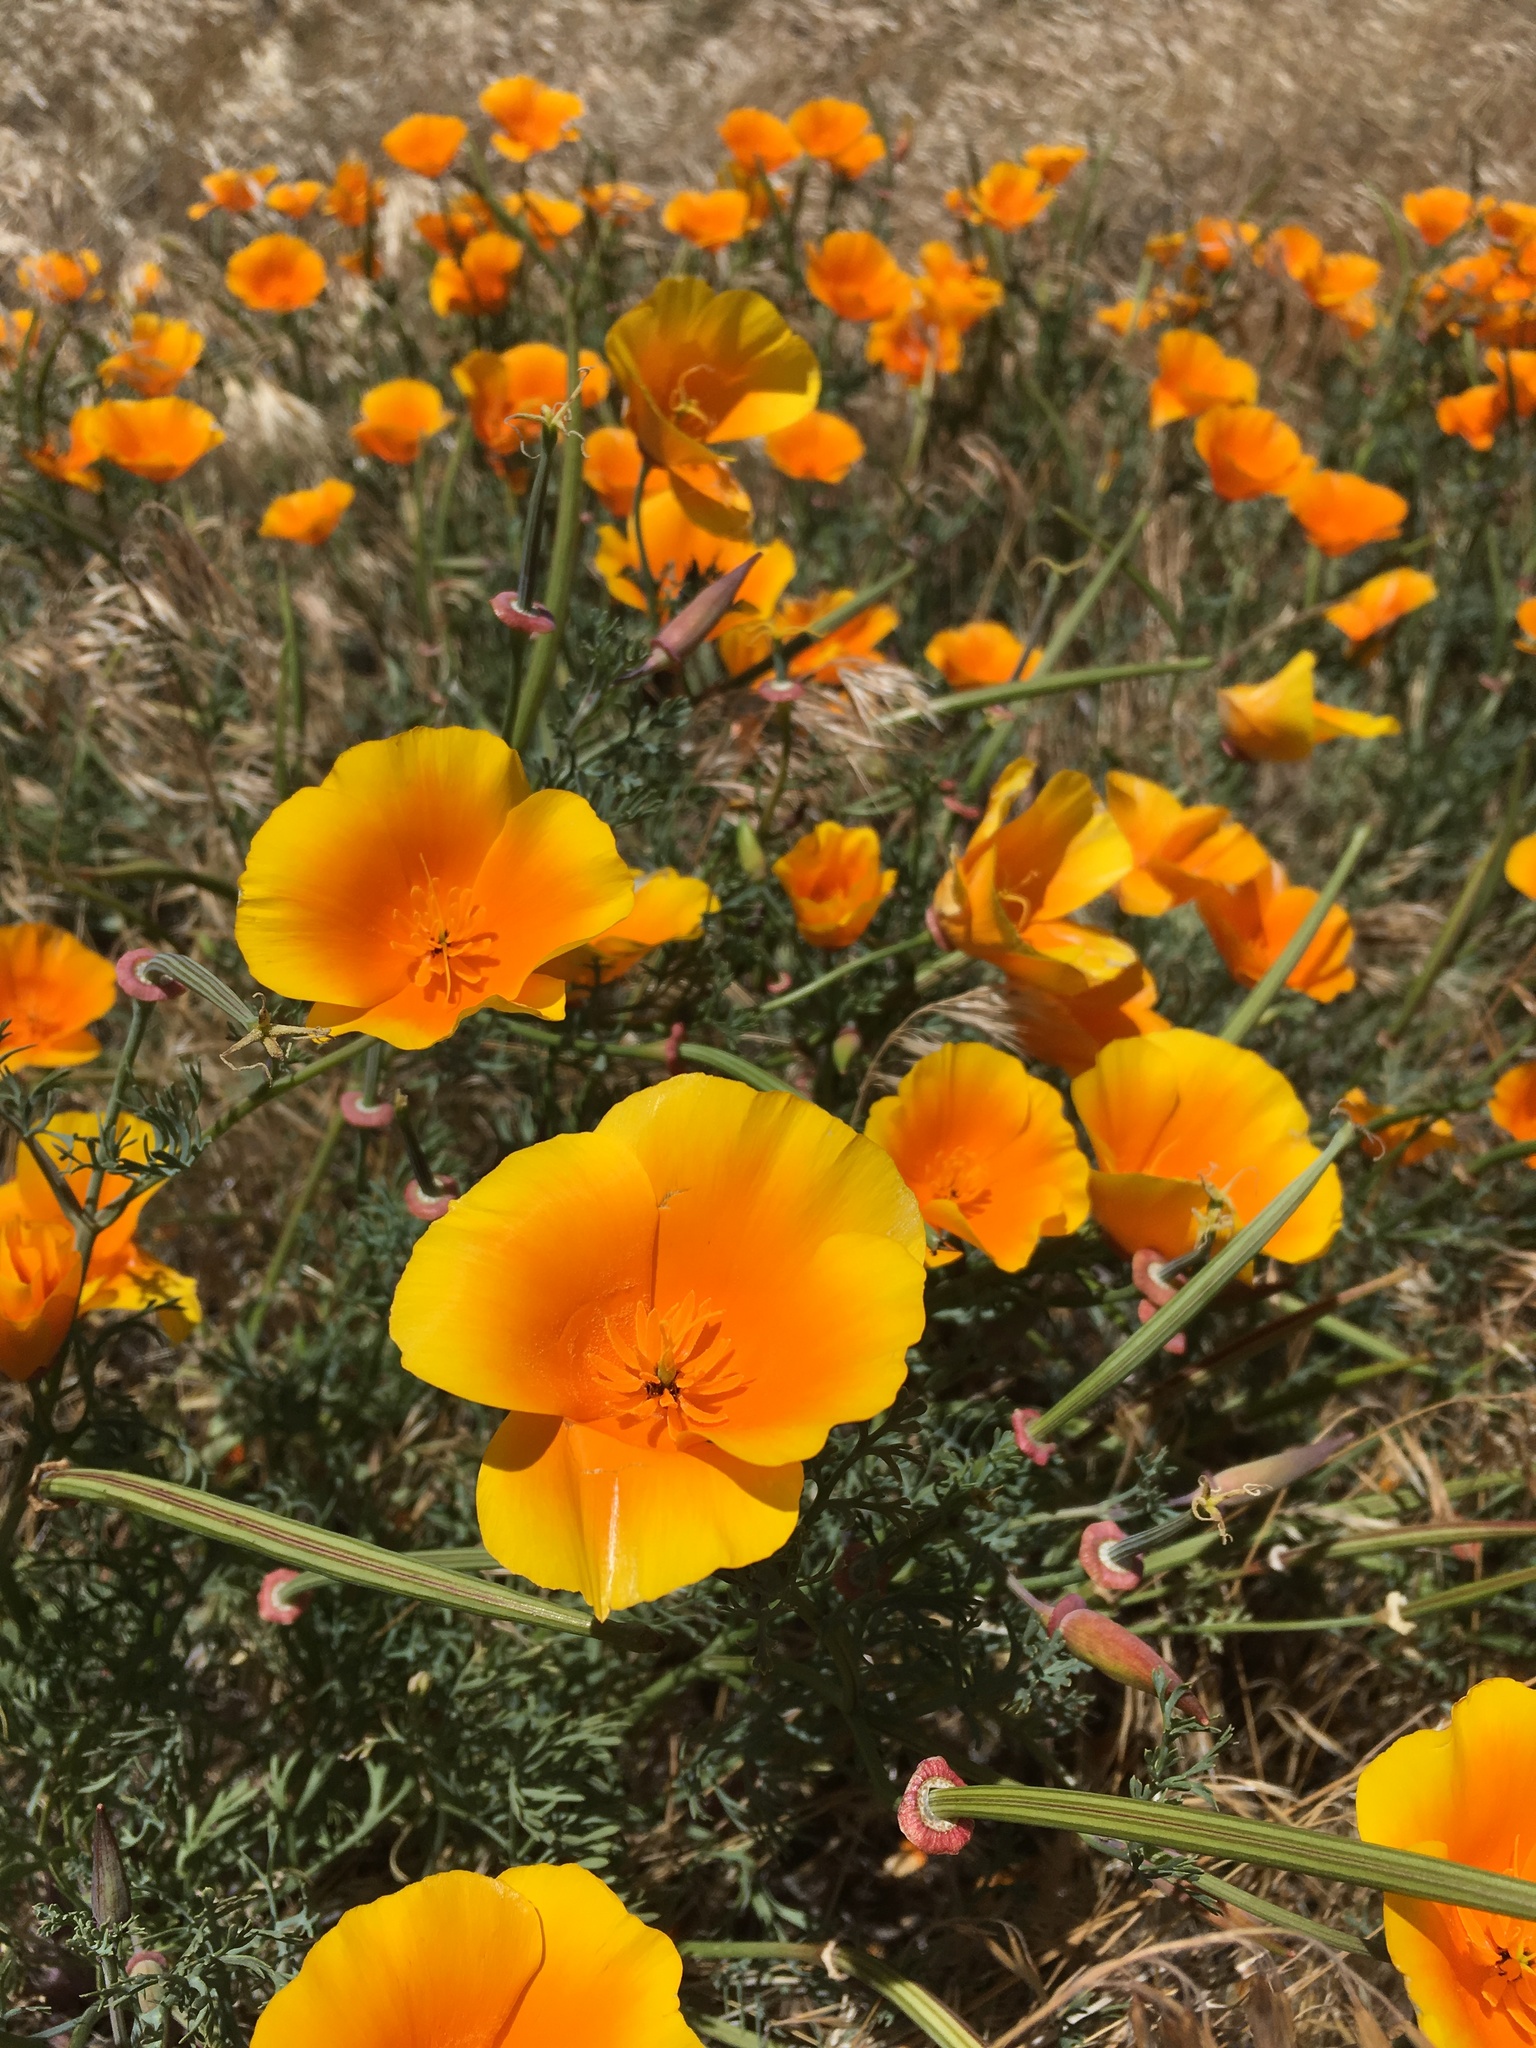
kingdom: Plantae
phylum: Tracheophyta
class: Magnoliopsida
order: Ranunculales
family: Papaveraceae
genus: Eschscholzia
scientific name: Eschscholzia californica
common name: California poppy
